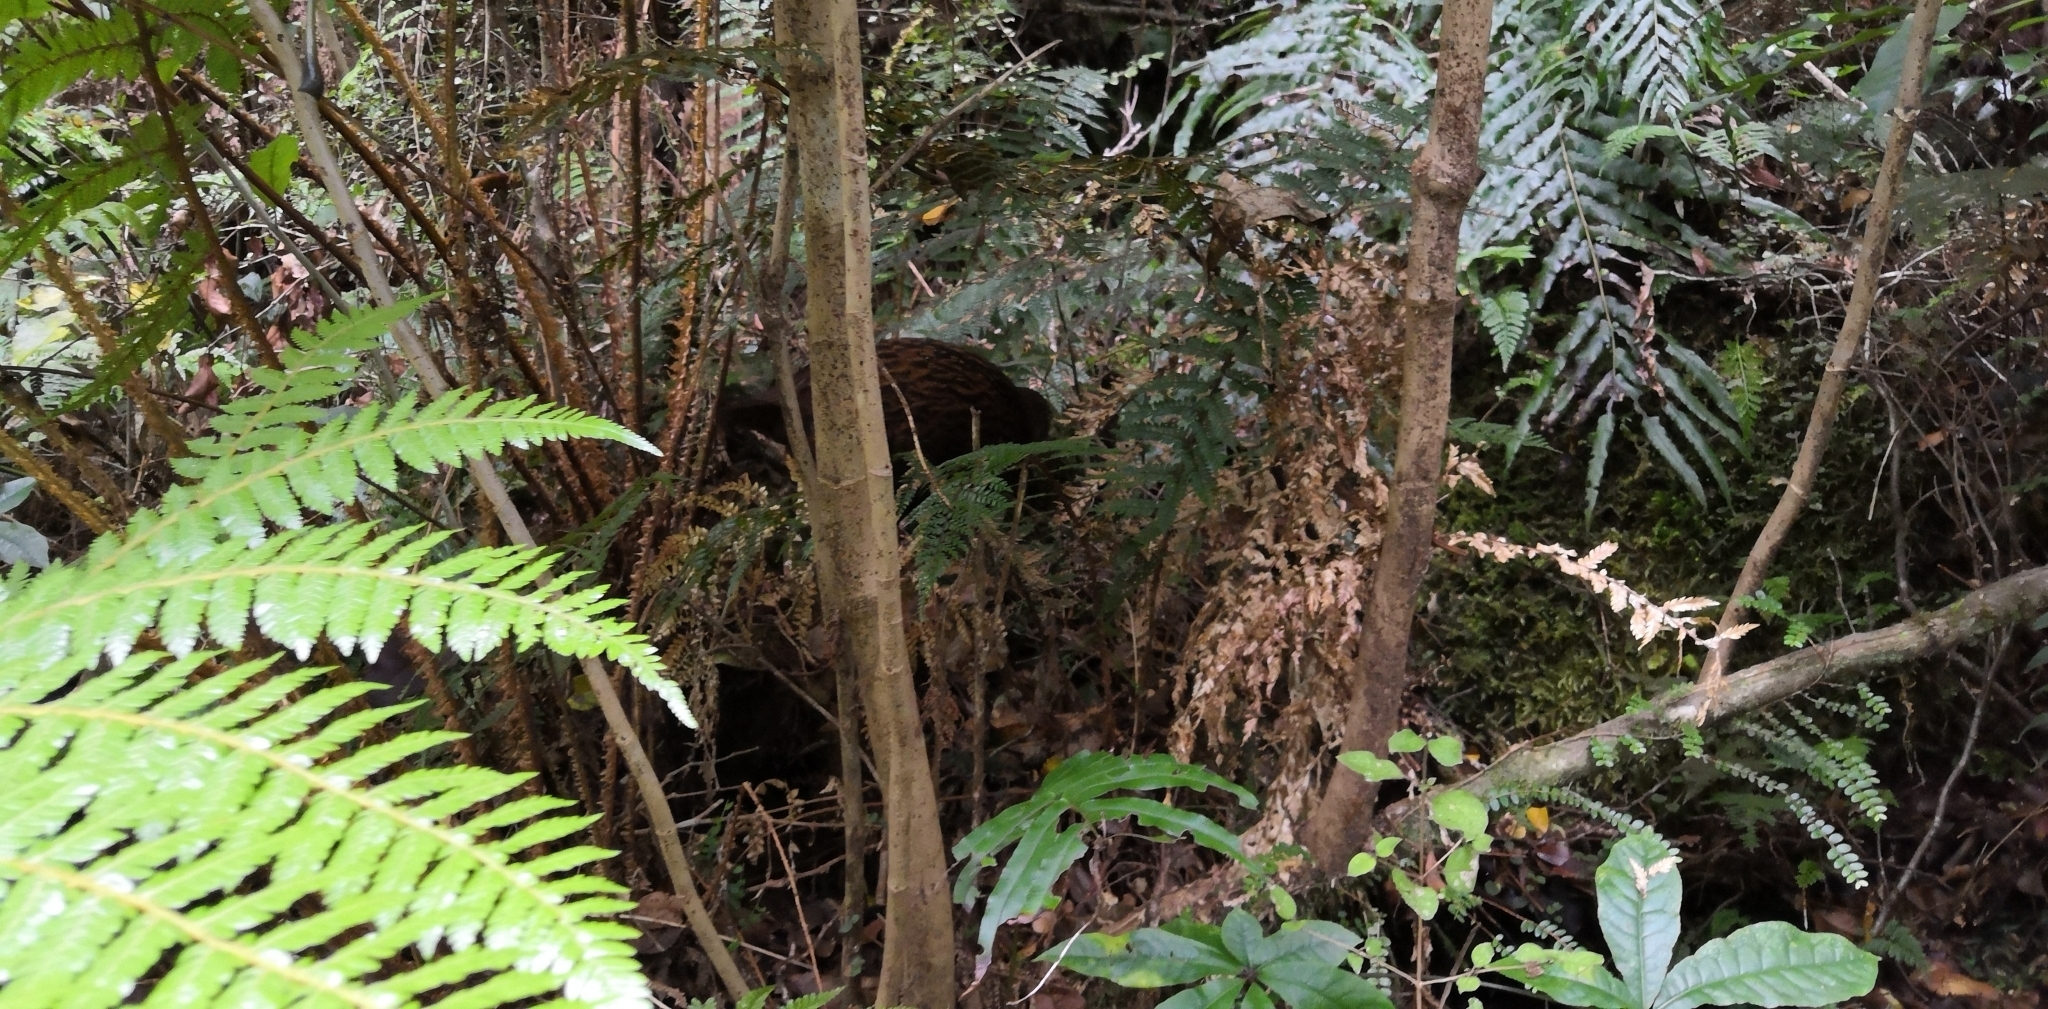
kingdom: Animalia
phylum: Chordata
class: Aves
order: Gruiformes
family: Rallidae
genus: Gallirallus
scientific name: Gallirallus australis
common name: Weka
